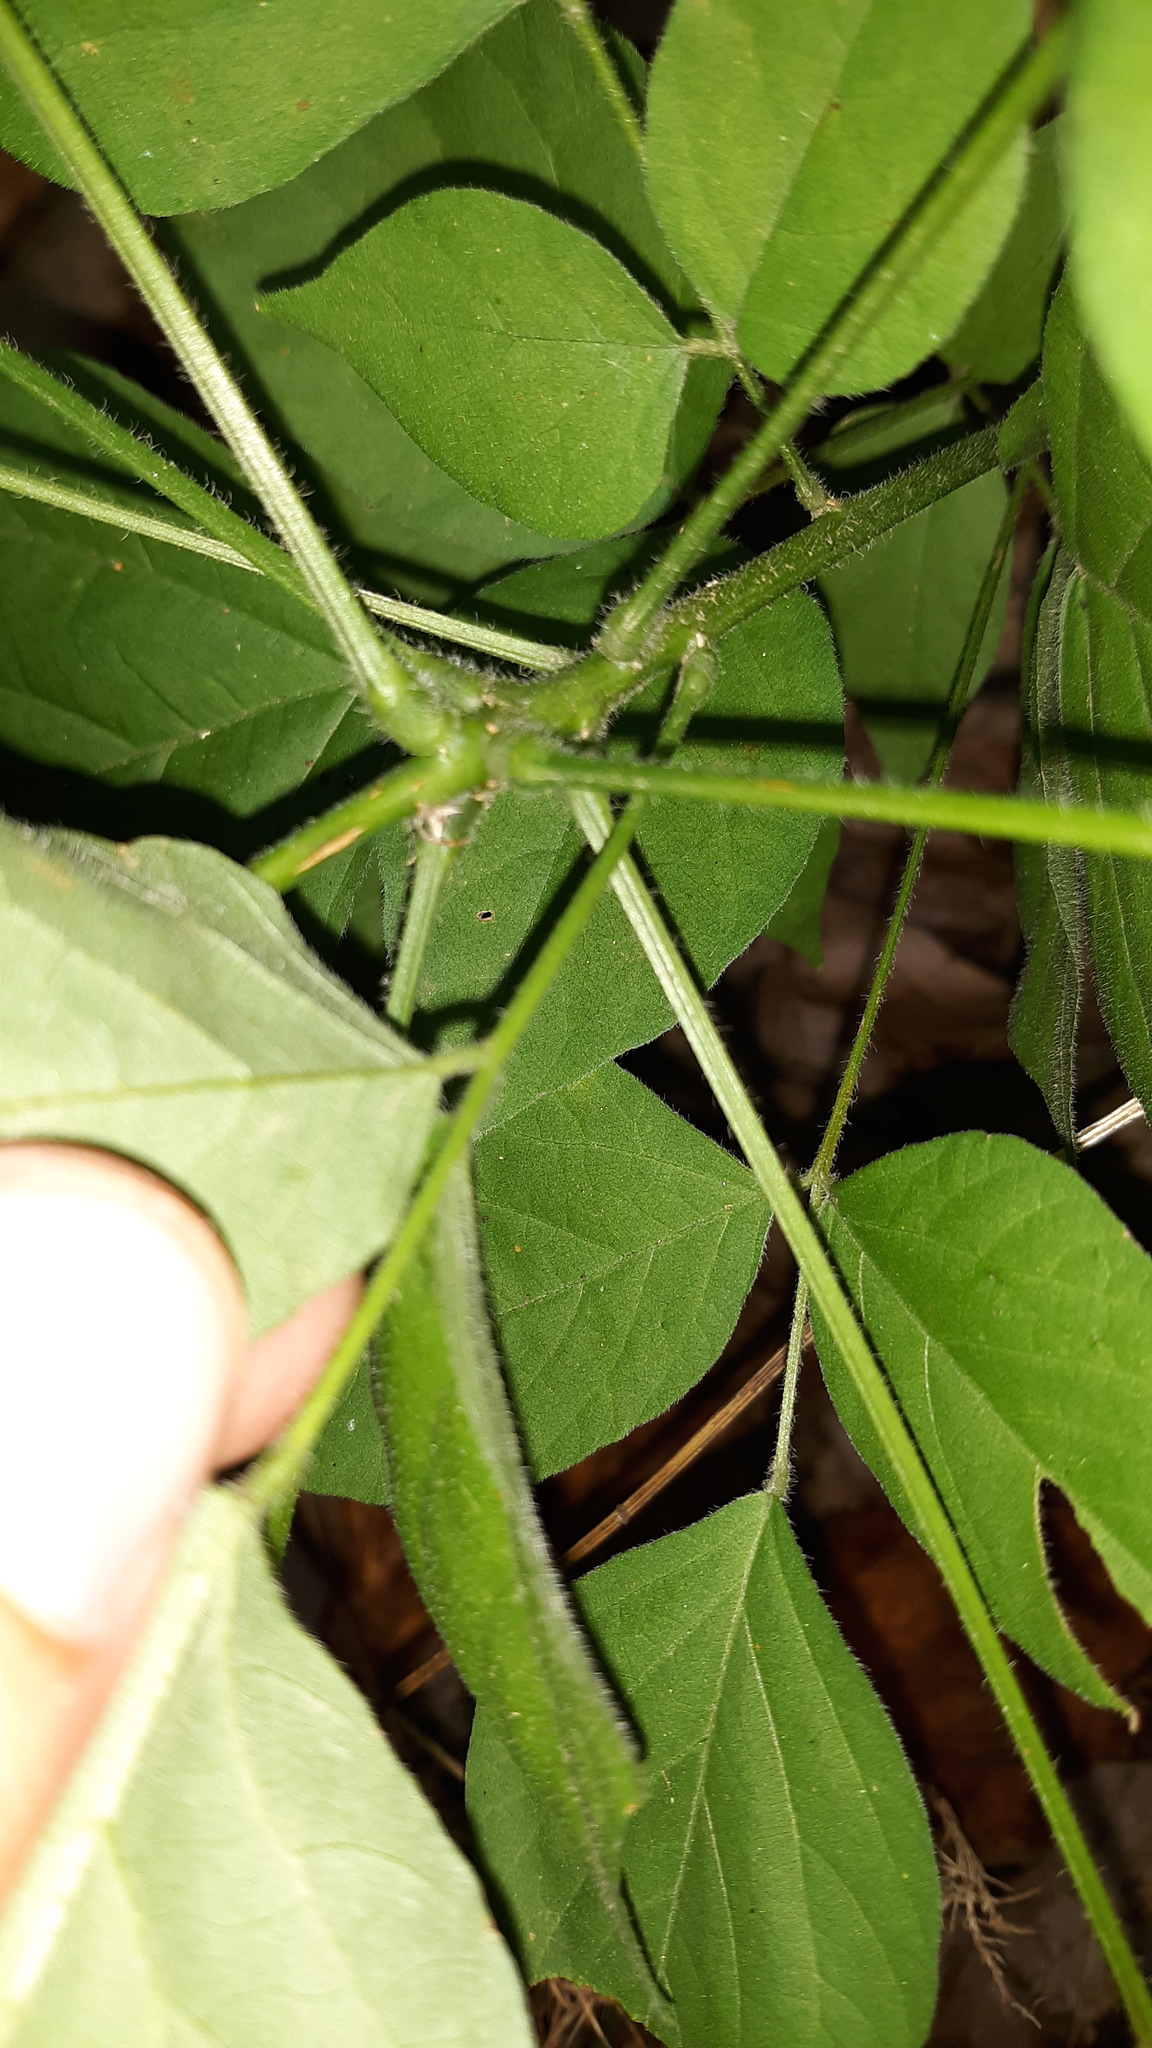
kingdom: Plantae
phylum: Tracheophyta
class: Magnoliopsida
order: Fabales
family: Fabaceae
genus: Hylodesmum
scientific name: Hylodesmum glutinosum
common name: Clustered-leaved tick-trefoil
